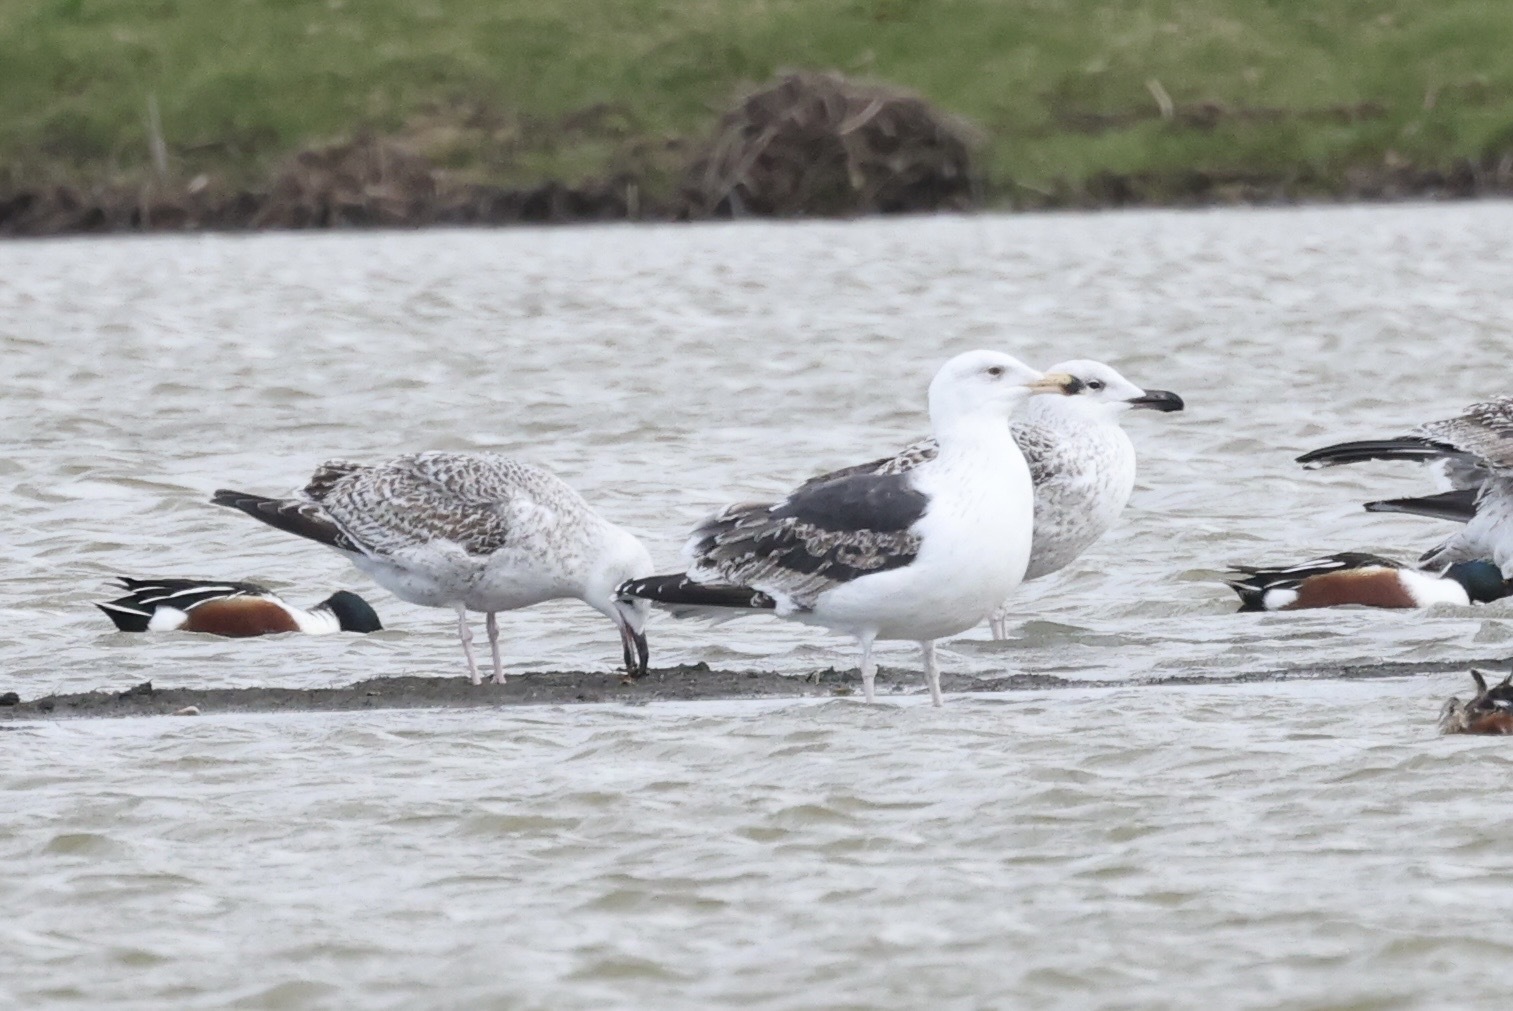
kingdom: Animalia
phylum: Chordata
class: Aves
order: Charadriiformes
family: Laridae
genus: Larus
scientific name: Larus marinus
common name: Great black-backed gull
